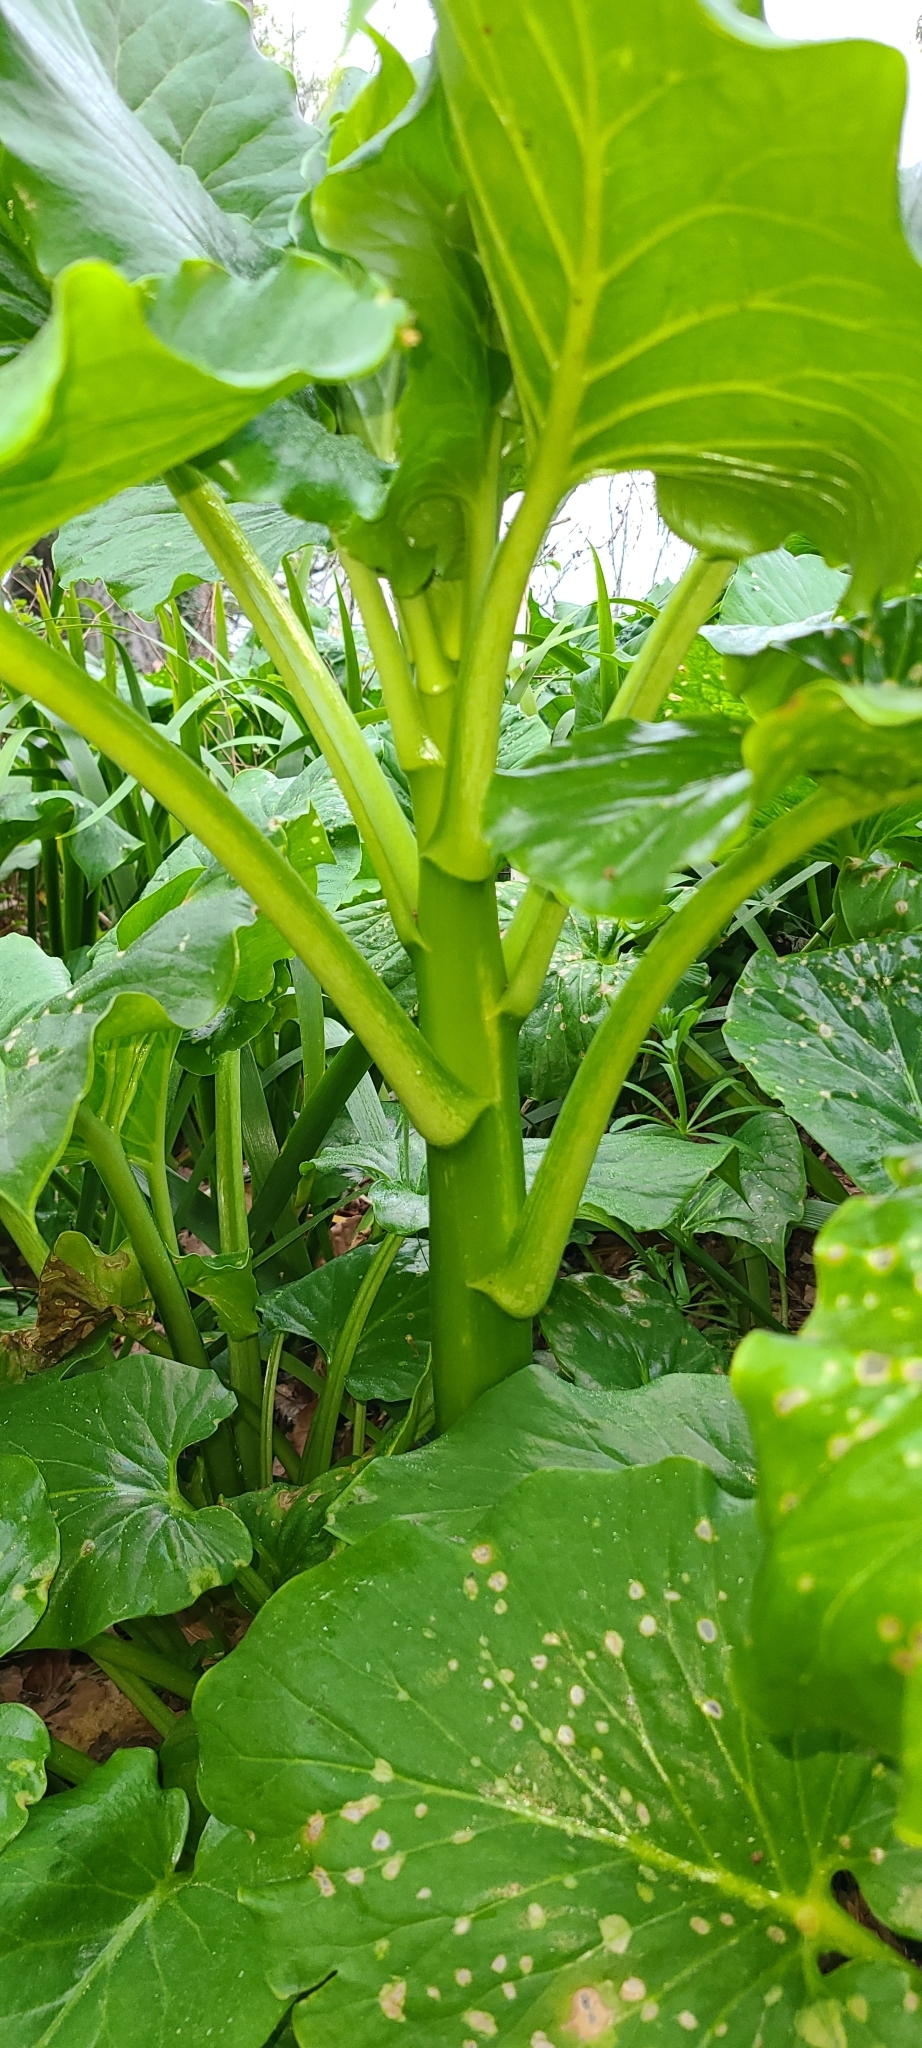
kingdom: Plantae
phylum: Tracheophyta
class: Liliopsida
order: Liliales
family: Liliaceae
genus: Cardiocrinum
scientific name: Cardiocrinum giganteum
